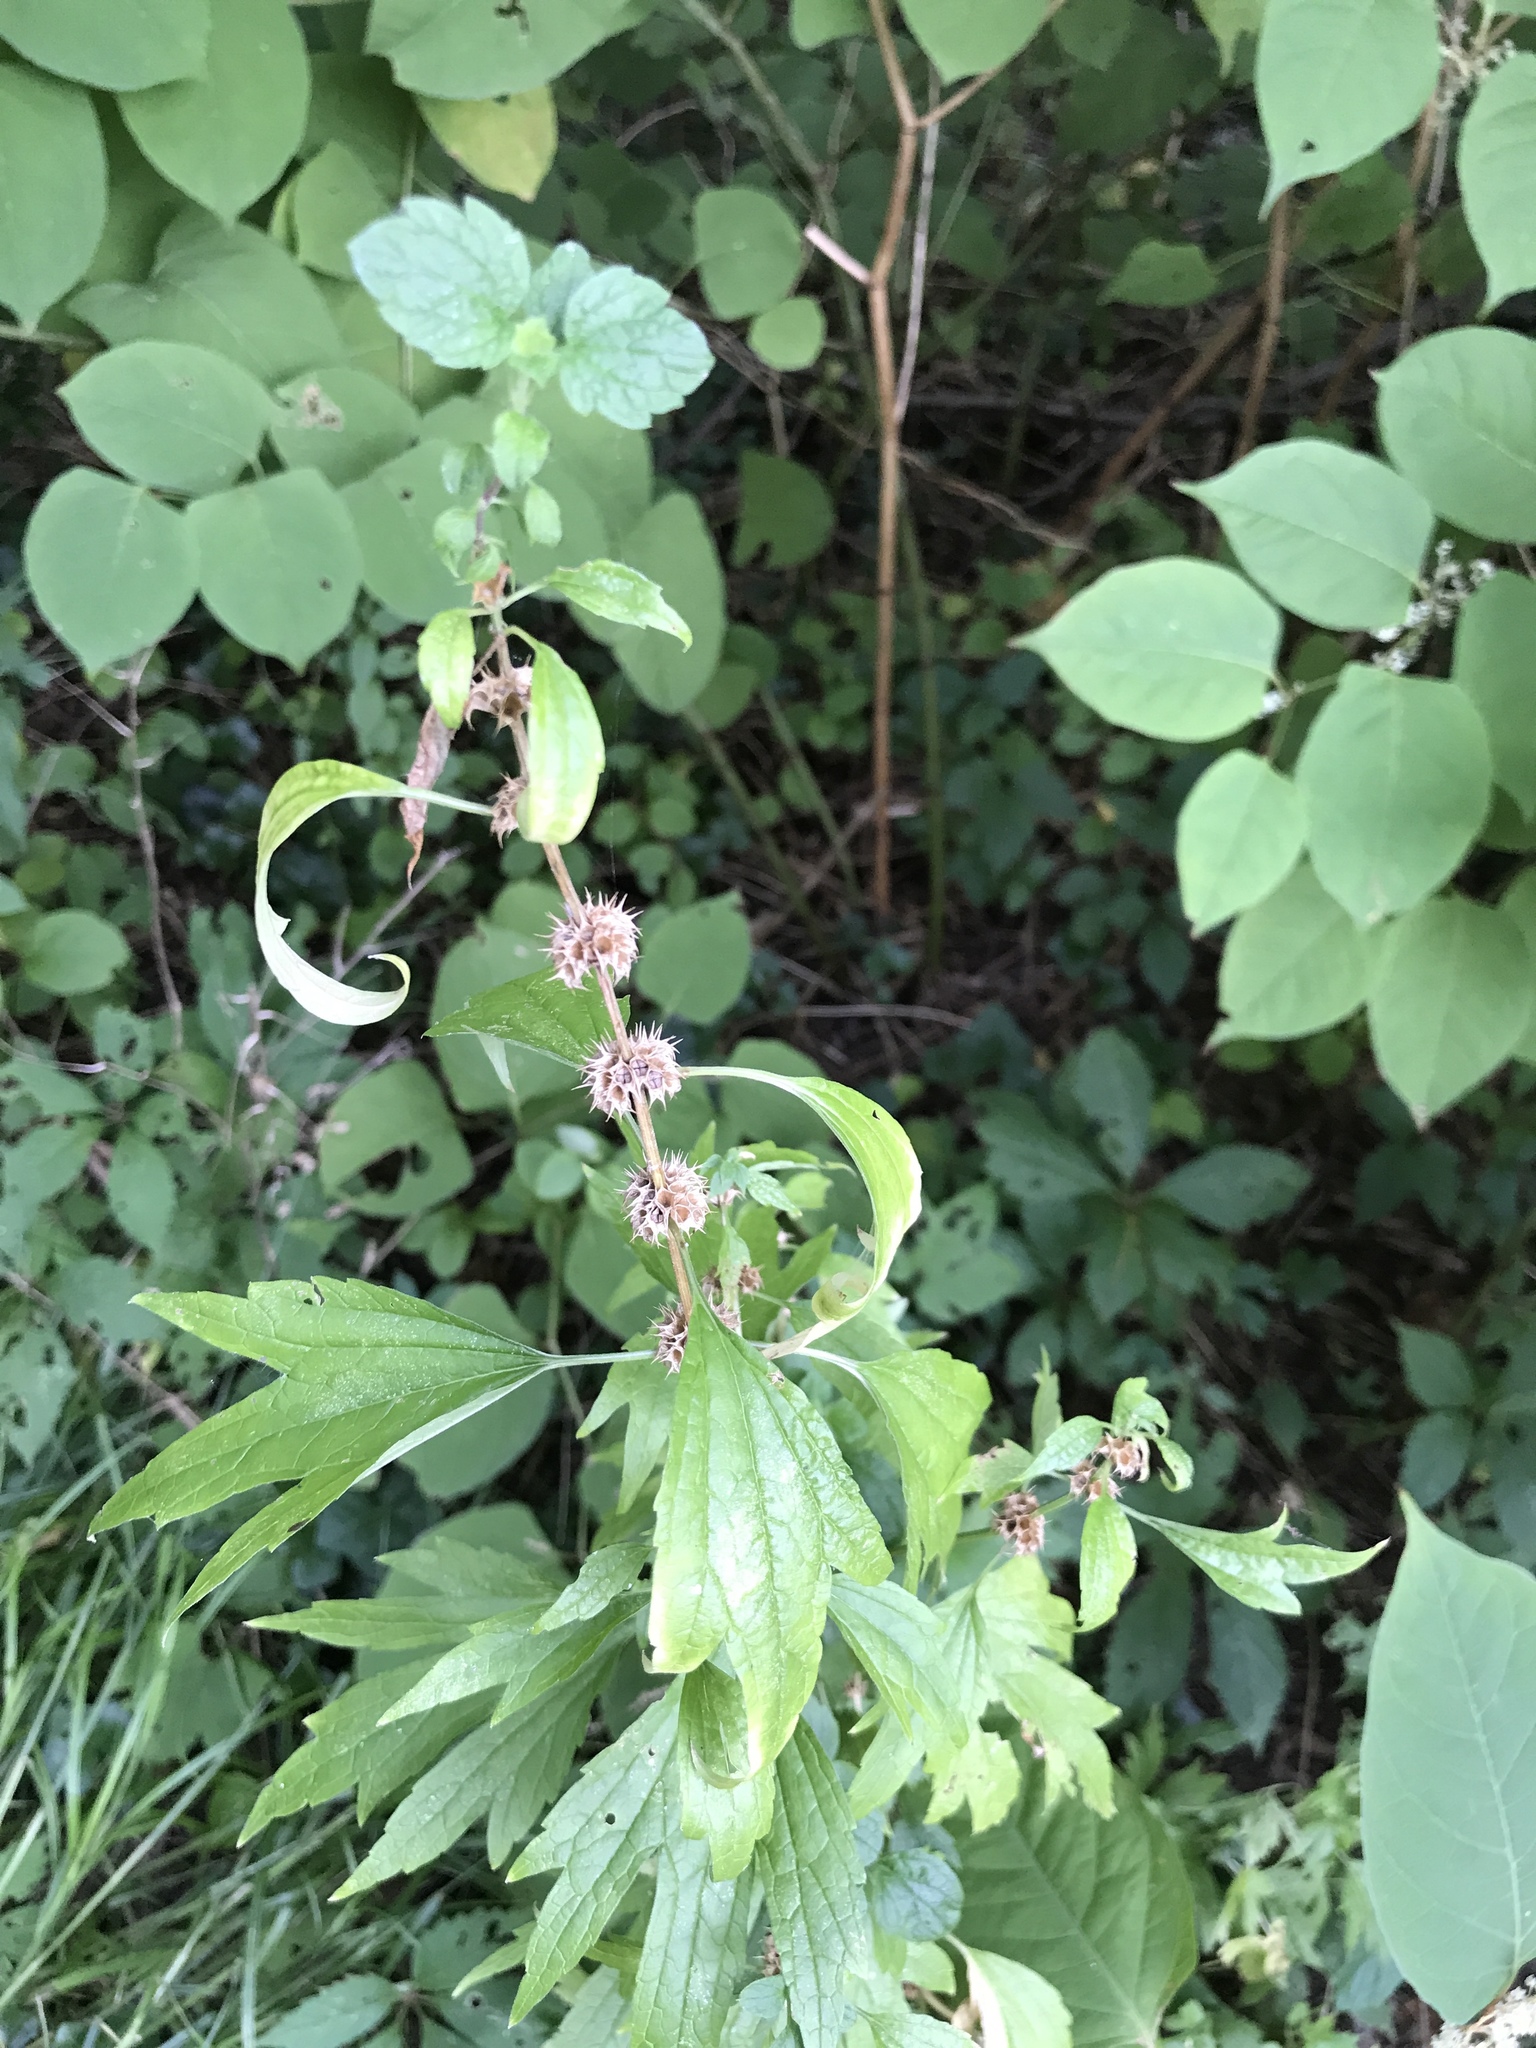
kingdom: Plantae
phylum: Tracheophyta
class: Magnoliopsida
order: Lamiales
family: Lamiaceae
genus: Leonurus
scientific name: Leonurus cardiaca
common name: Motherwort
